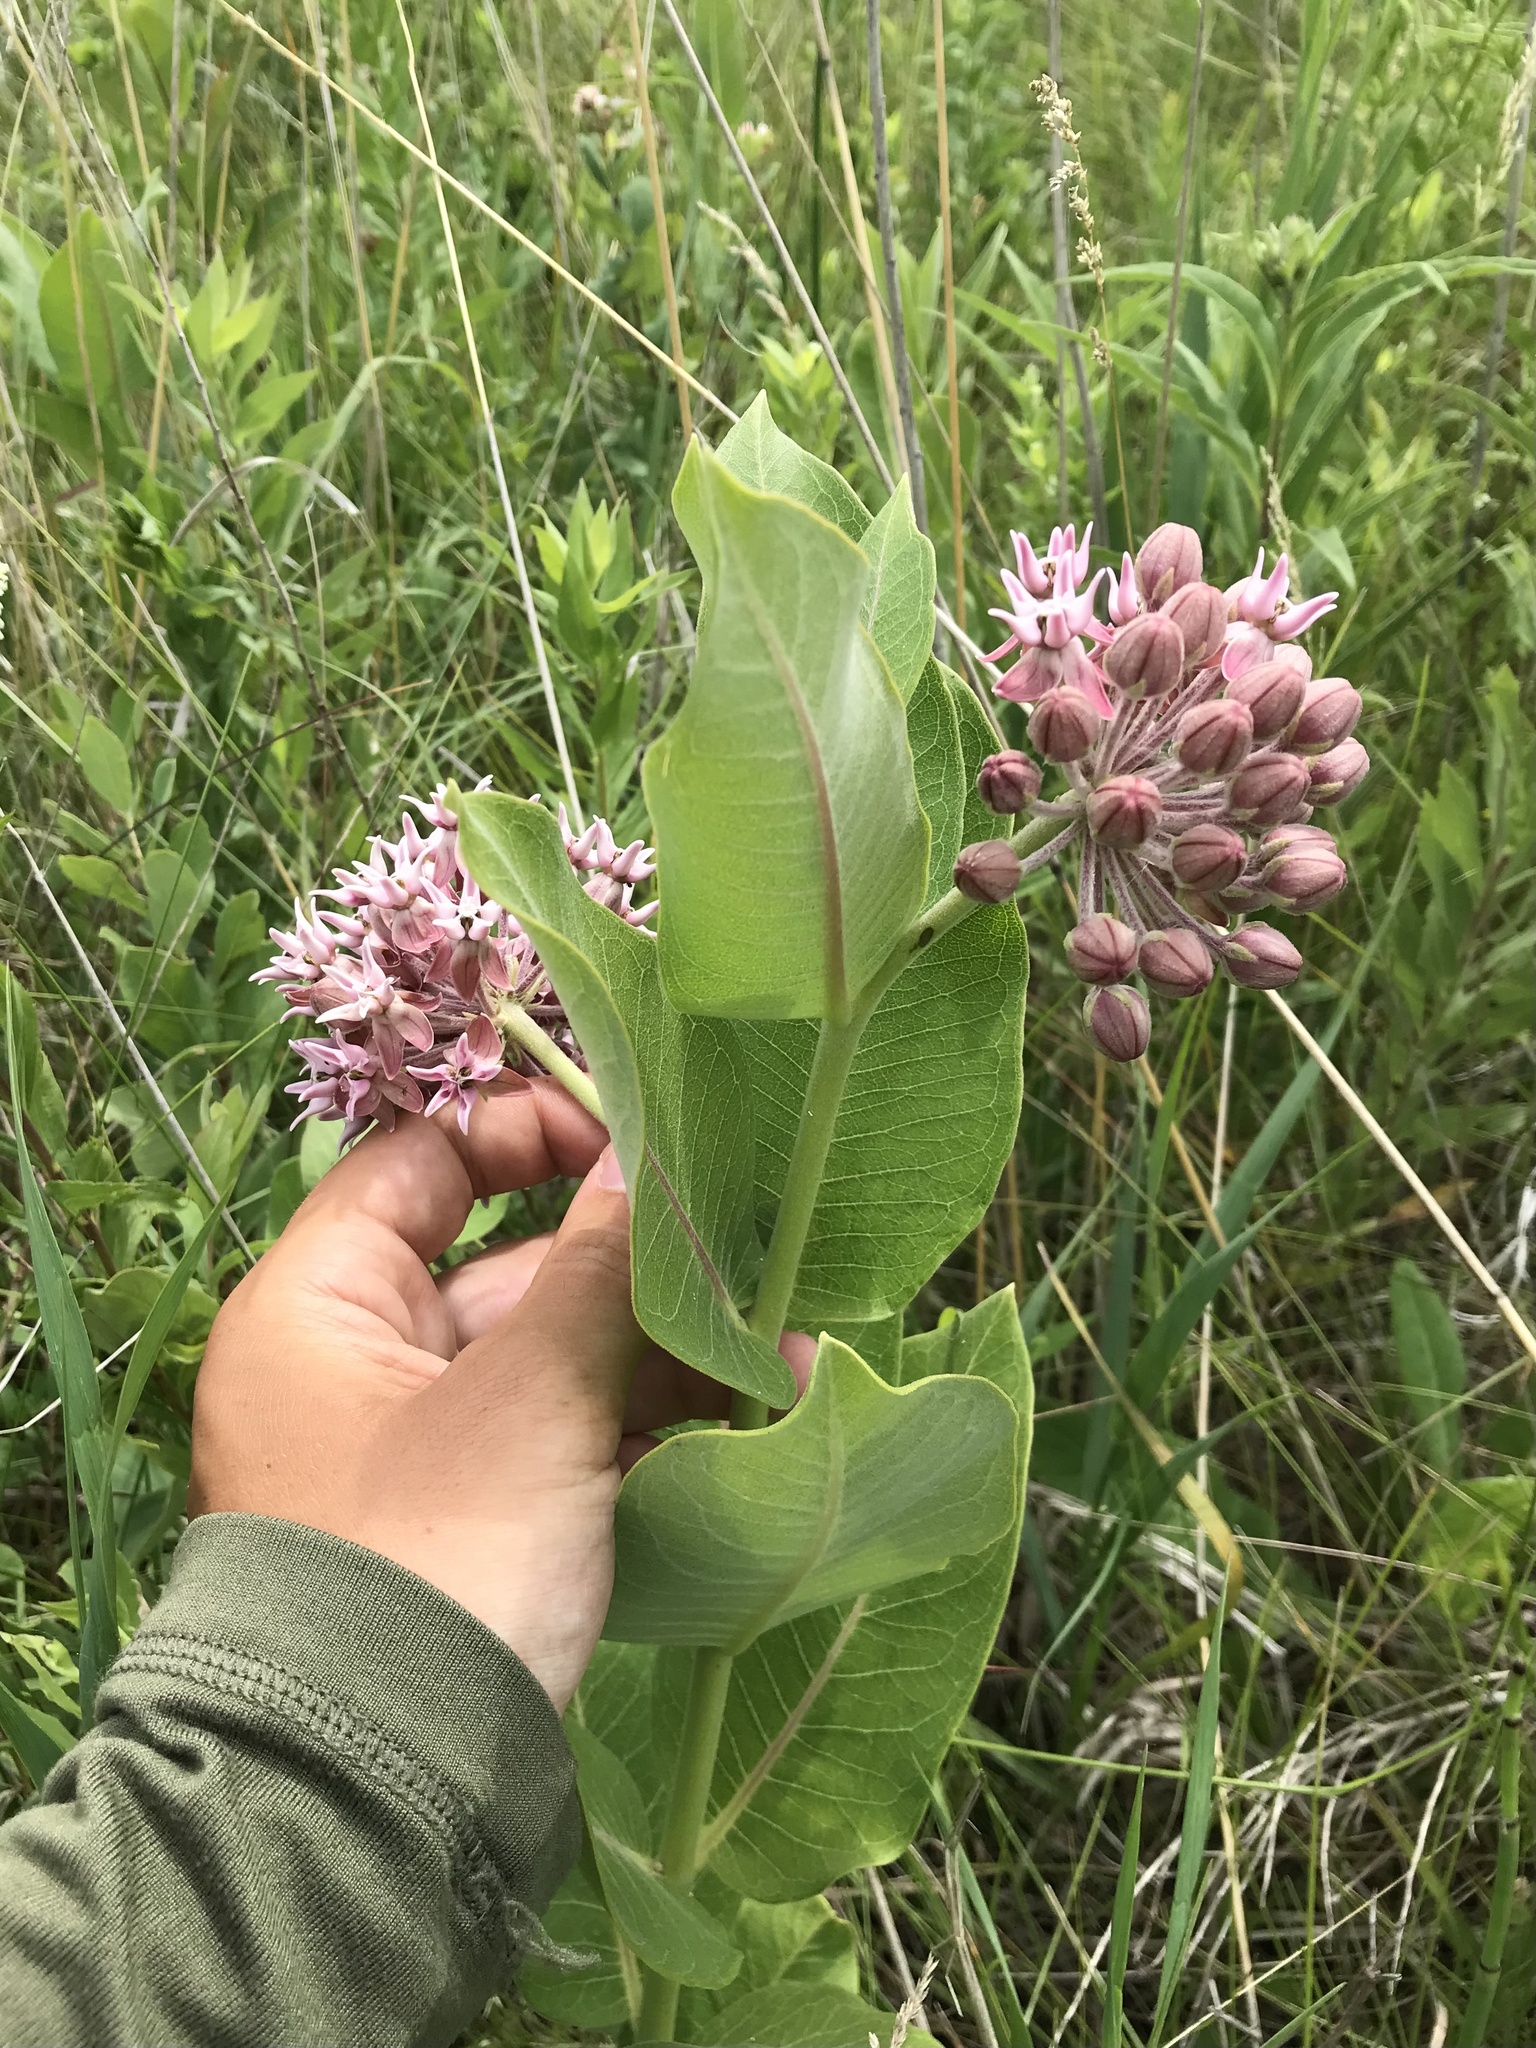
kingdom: Plantae
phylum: Tracheophyta
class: Magnoliopsida
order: Gentianales
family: Apocynaceae
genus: Asclepias
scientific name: Asclepias
